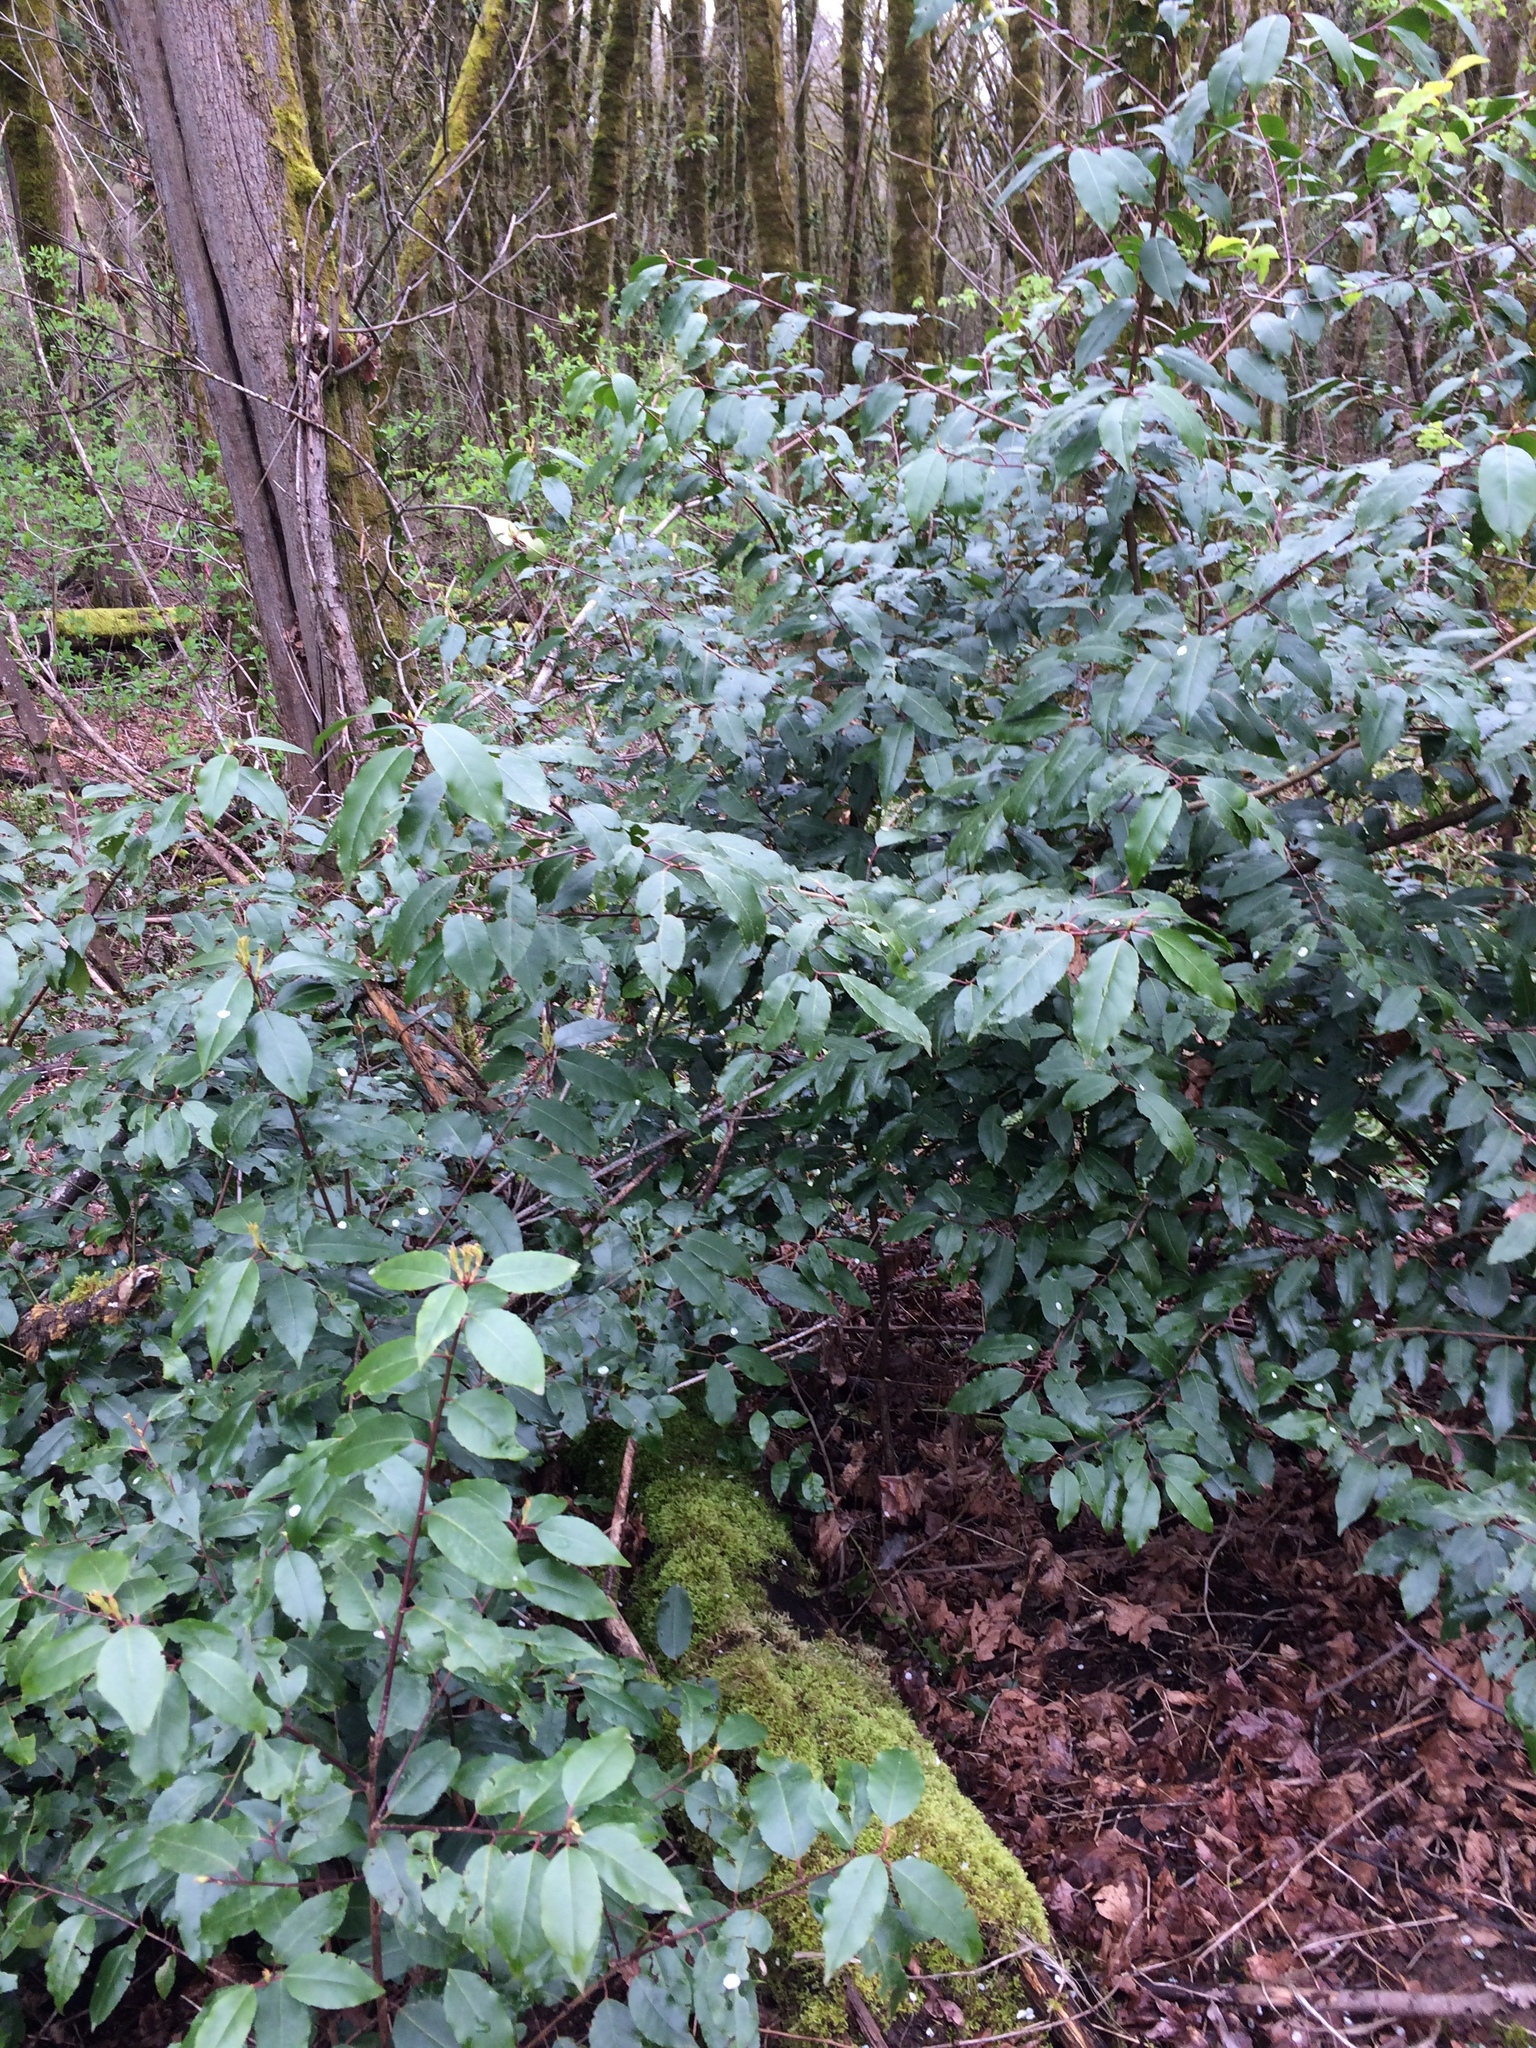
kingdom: Plantae
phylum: Tracheophyta
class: Magnoliopsida
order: Rosales
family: Rosaceae
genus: Prunus
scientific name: Prunus lusitanica
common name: Portugal laurel
